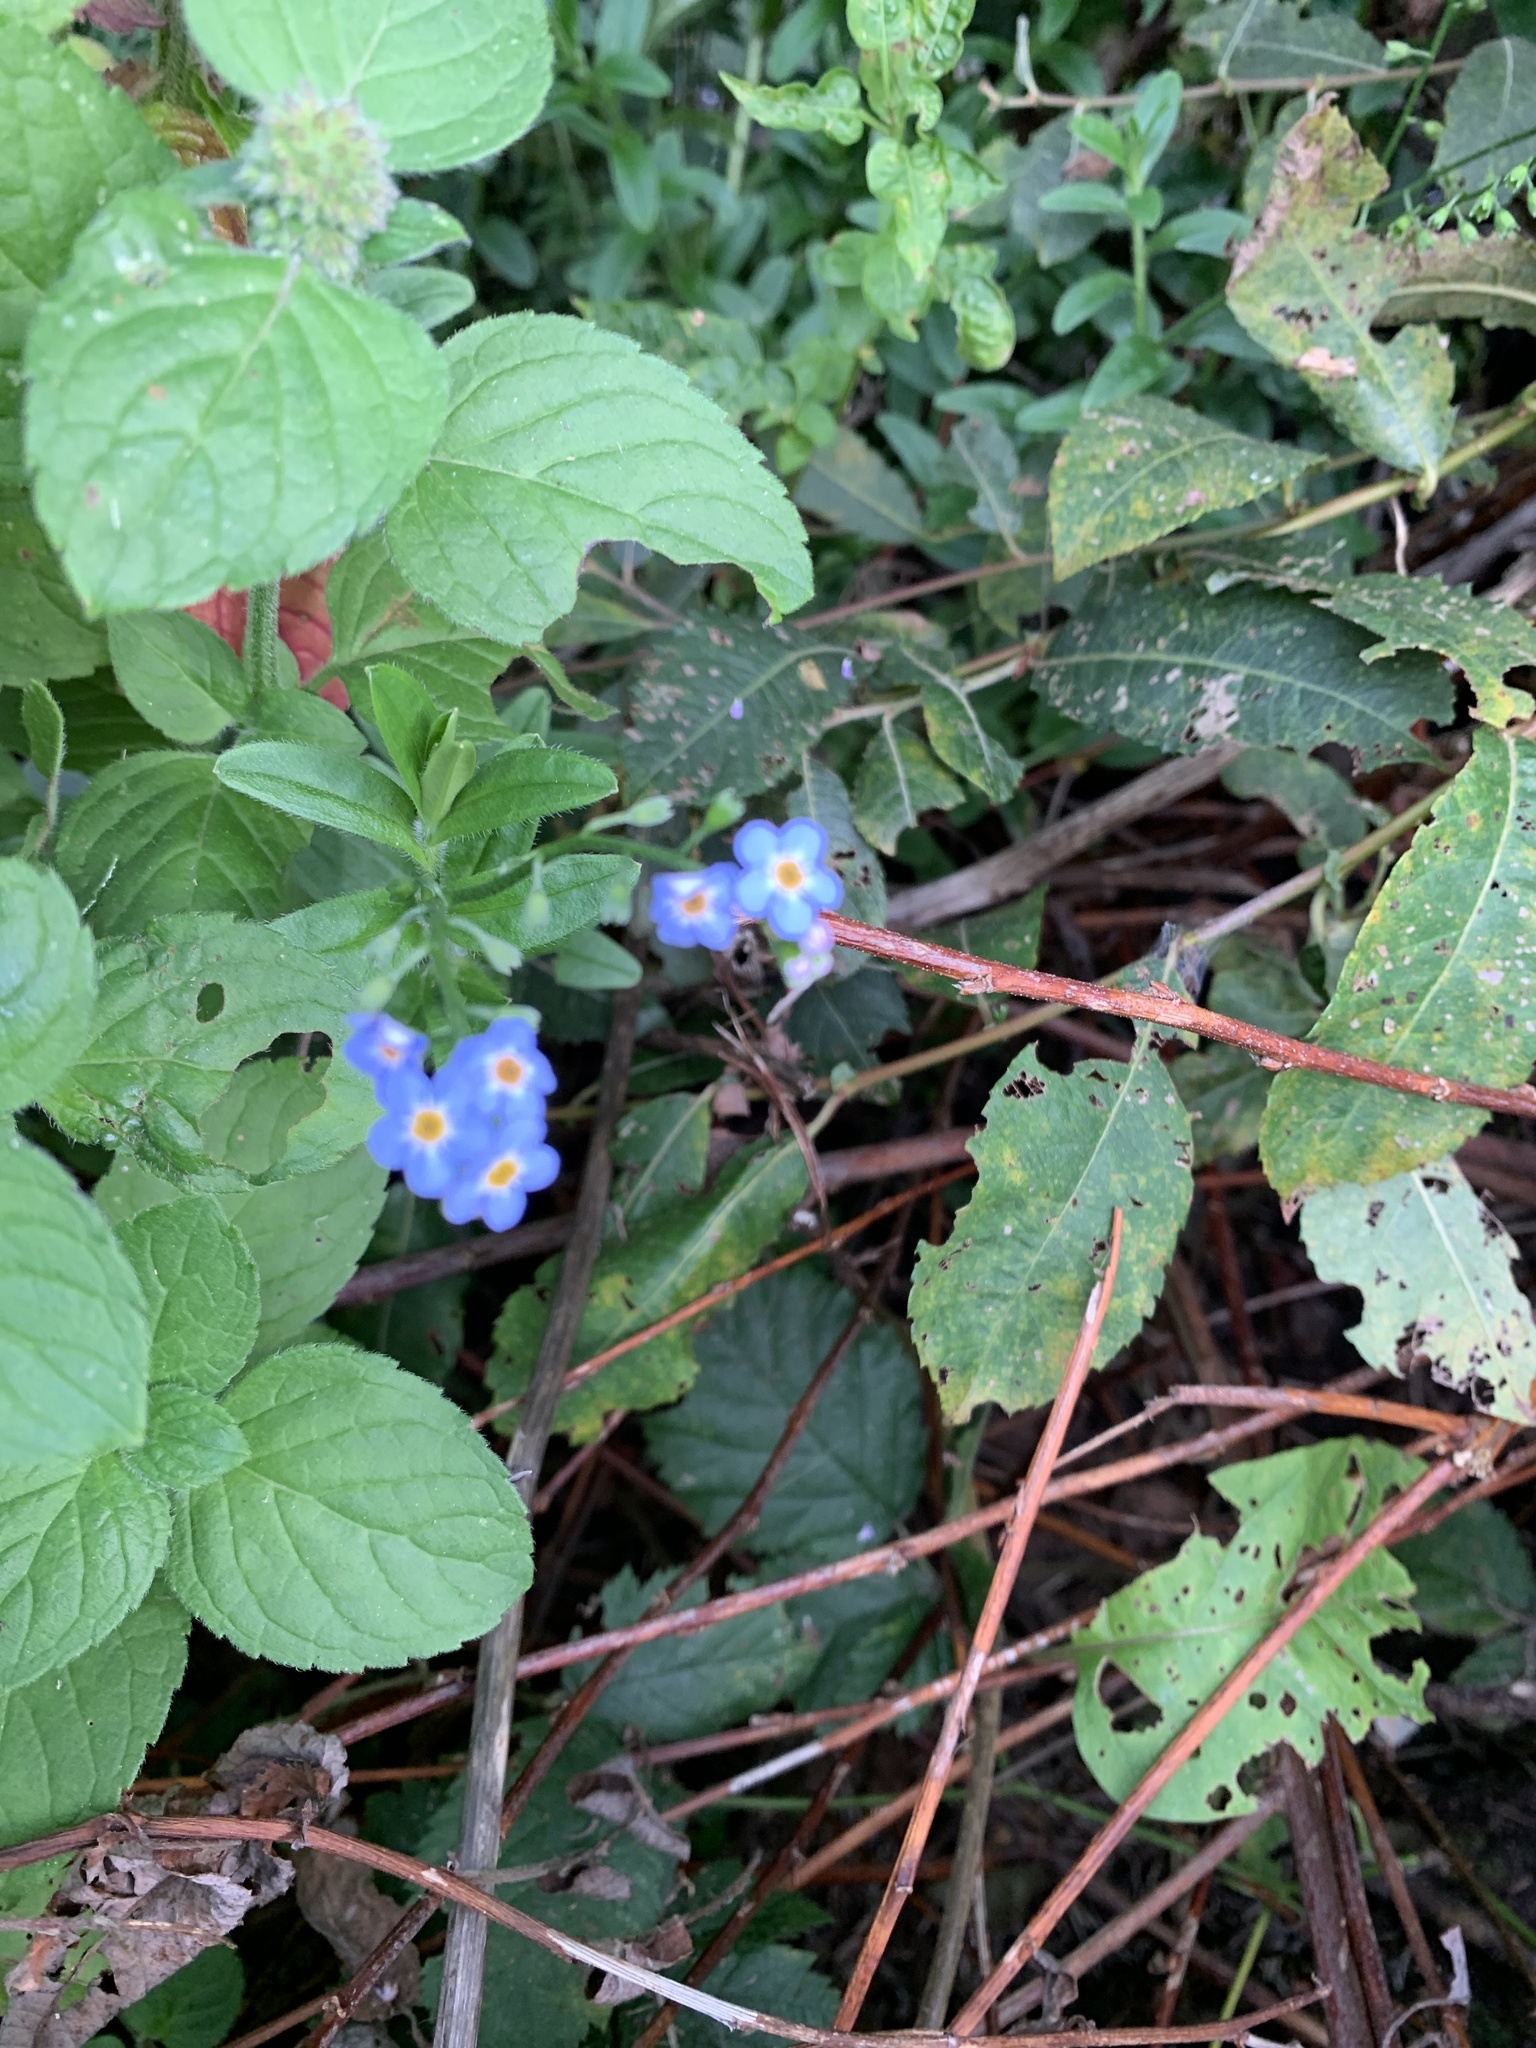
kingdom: Plantae
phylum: Tracheophyta
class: Magnoliopsida
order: Boraginales
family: Boraginaceae
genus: Myosotis
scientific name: Myosotis scorpioides
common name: Water forget-me-not
